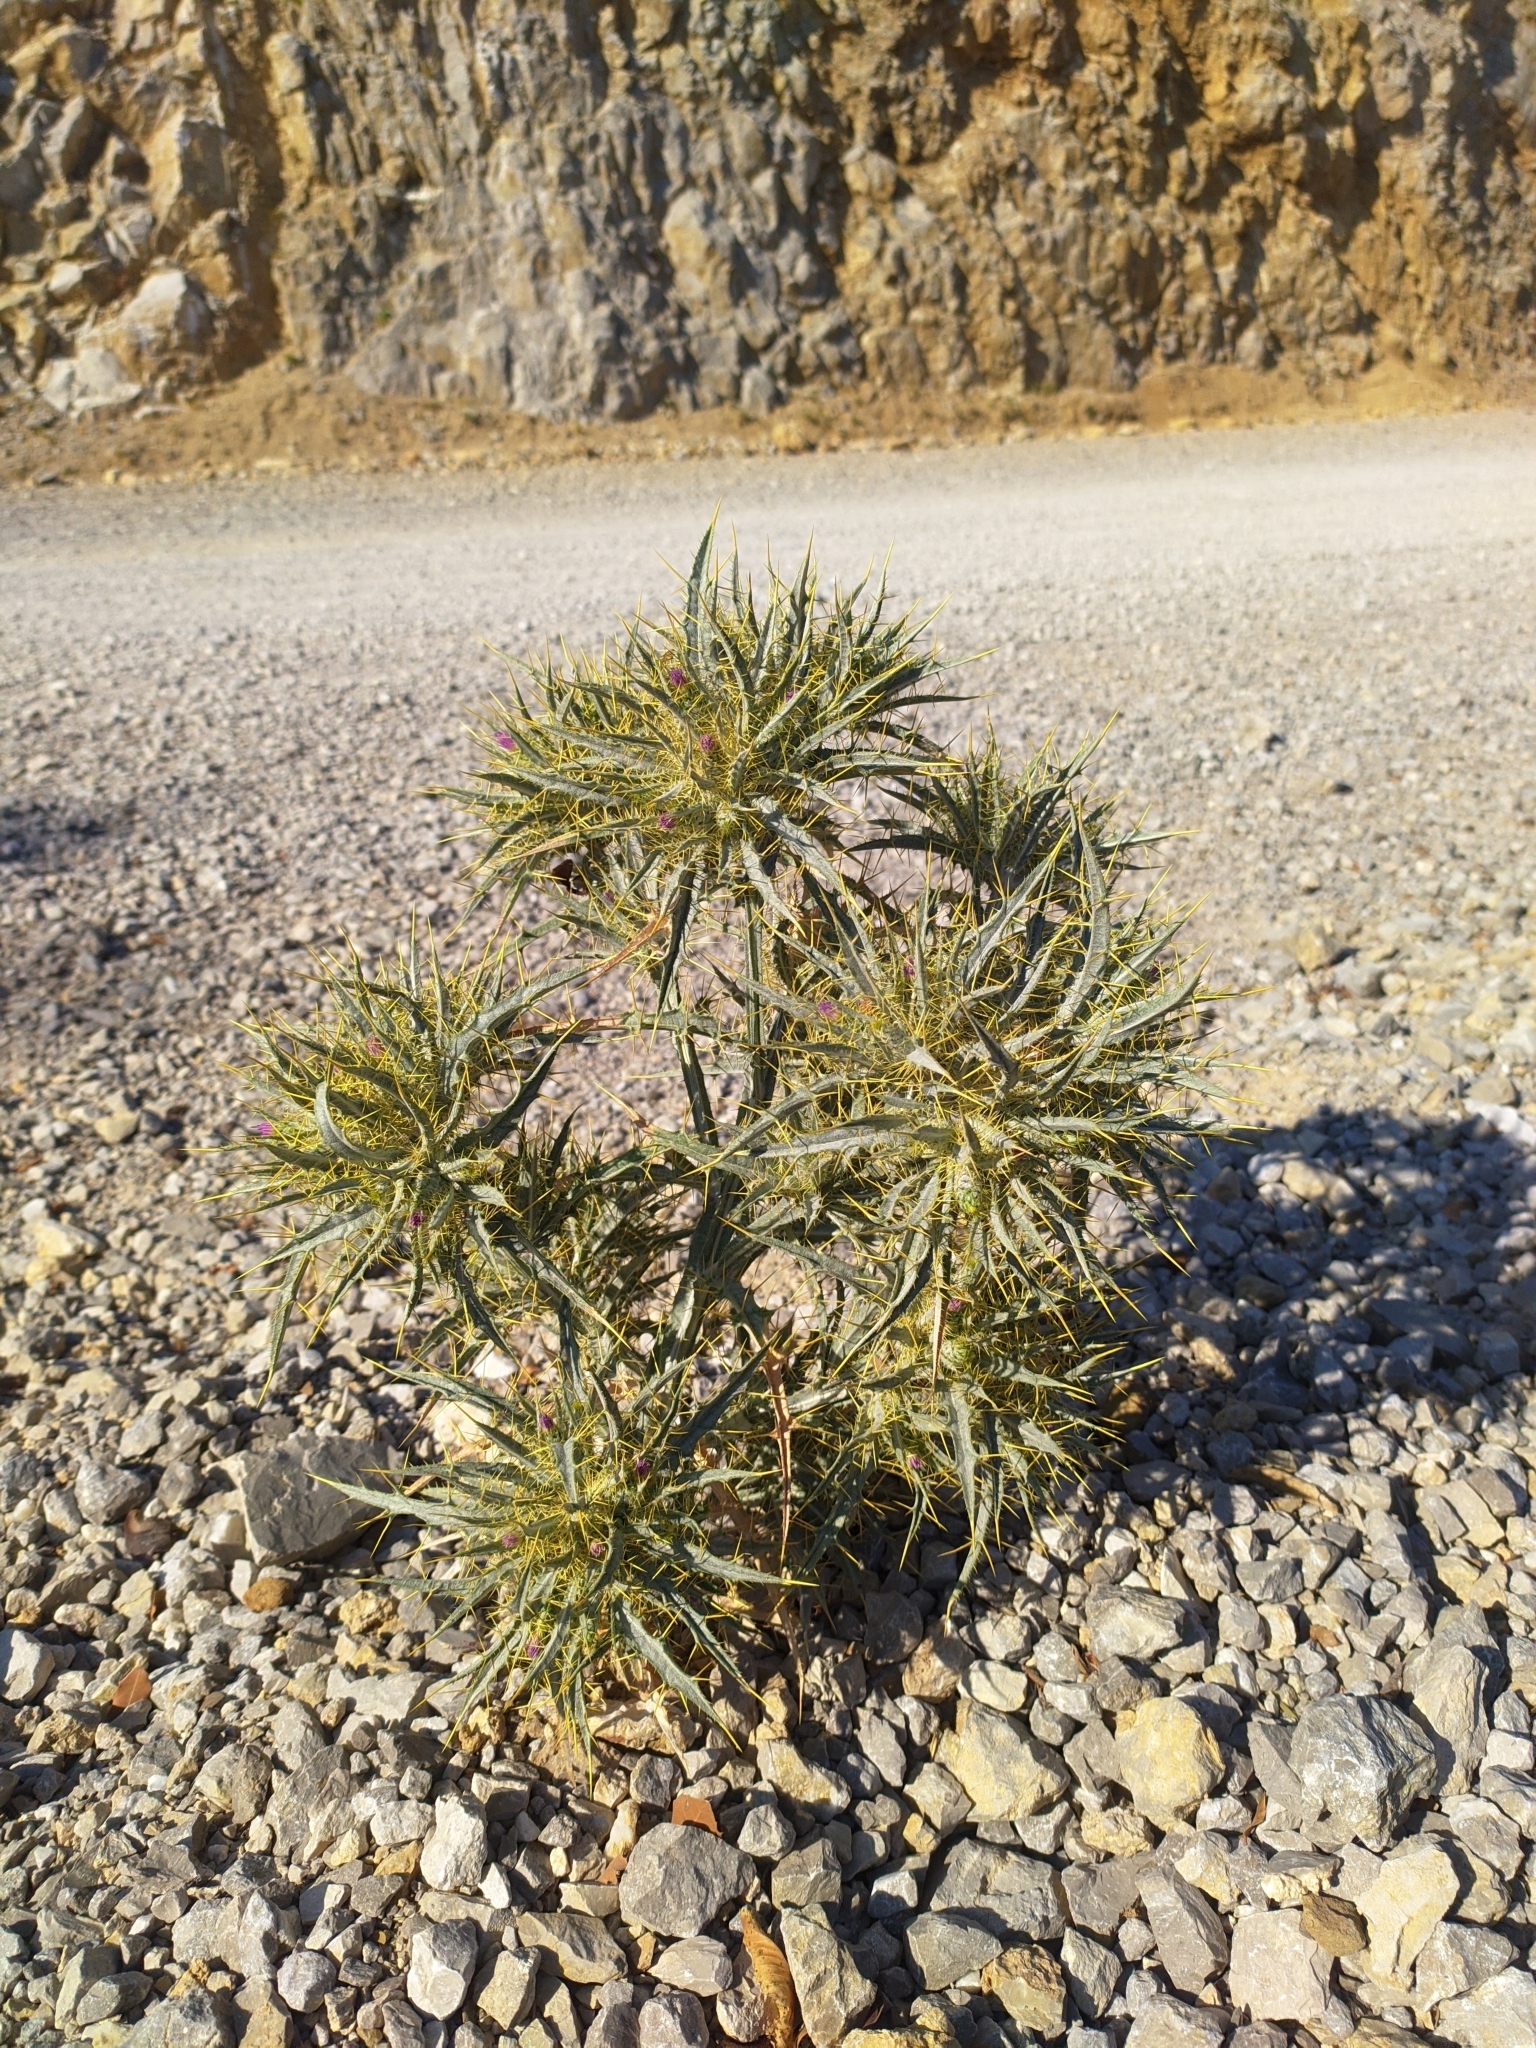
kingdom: Plantae
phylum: Tracheophyta
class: Magnoliopsida
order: Asterales
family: Asteraceae
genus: Picnomon
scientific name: Picnomon acarna
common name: Soldier thistle
